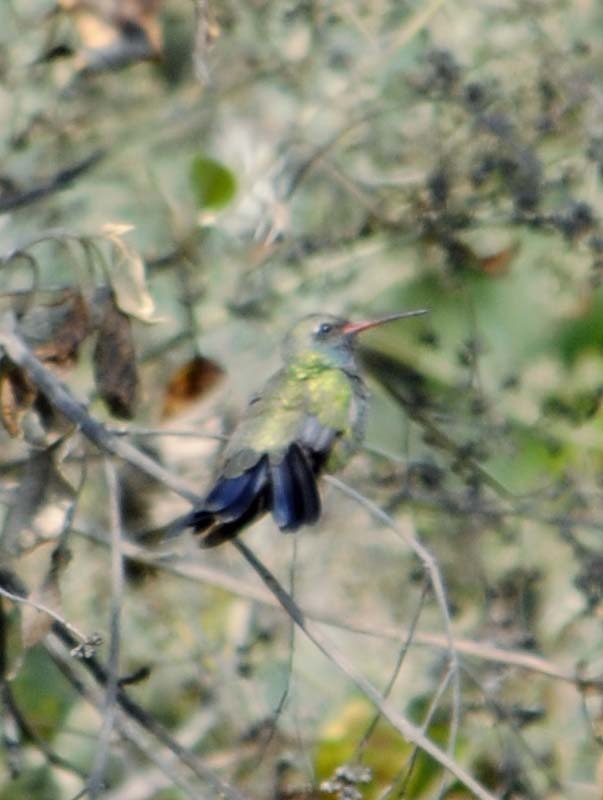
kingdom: Animalia
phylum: Chordata
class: Aves
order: Apodiformes
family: Trochilidae
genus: Cynanthus
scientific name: Cynanthus latirostris
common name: Broad-billed hummingbird
